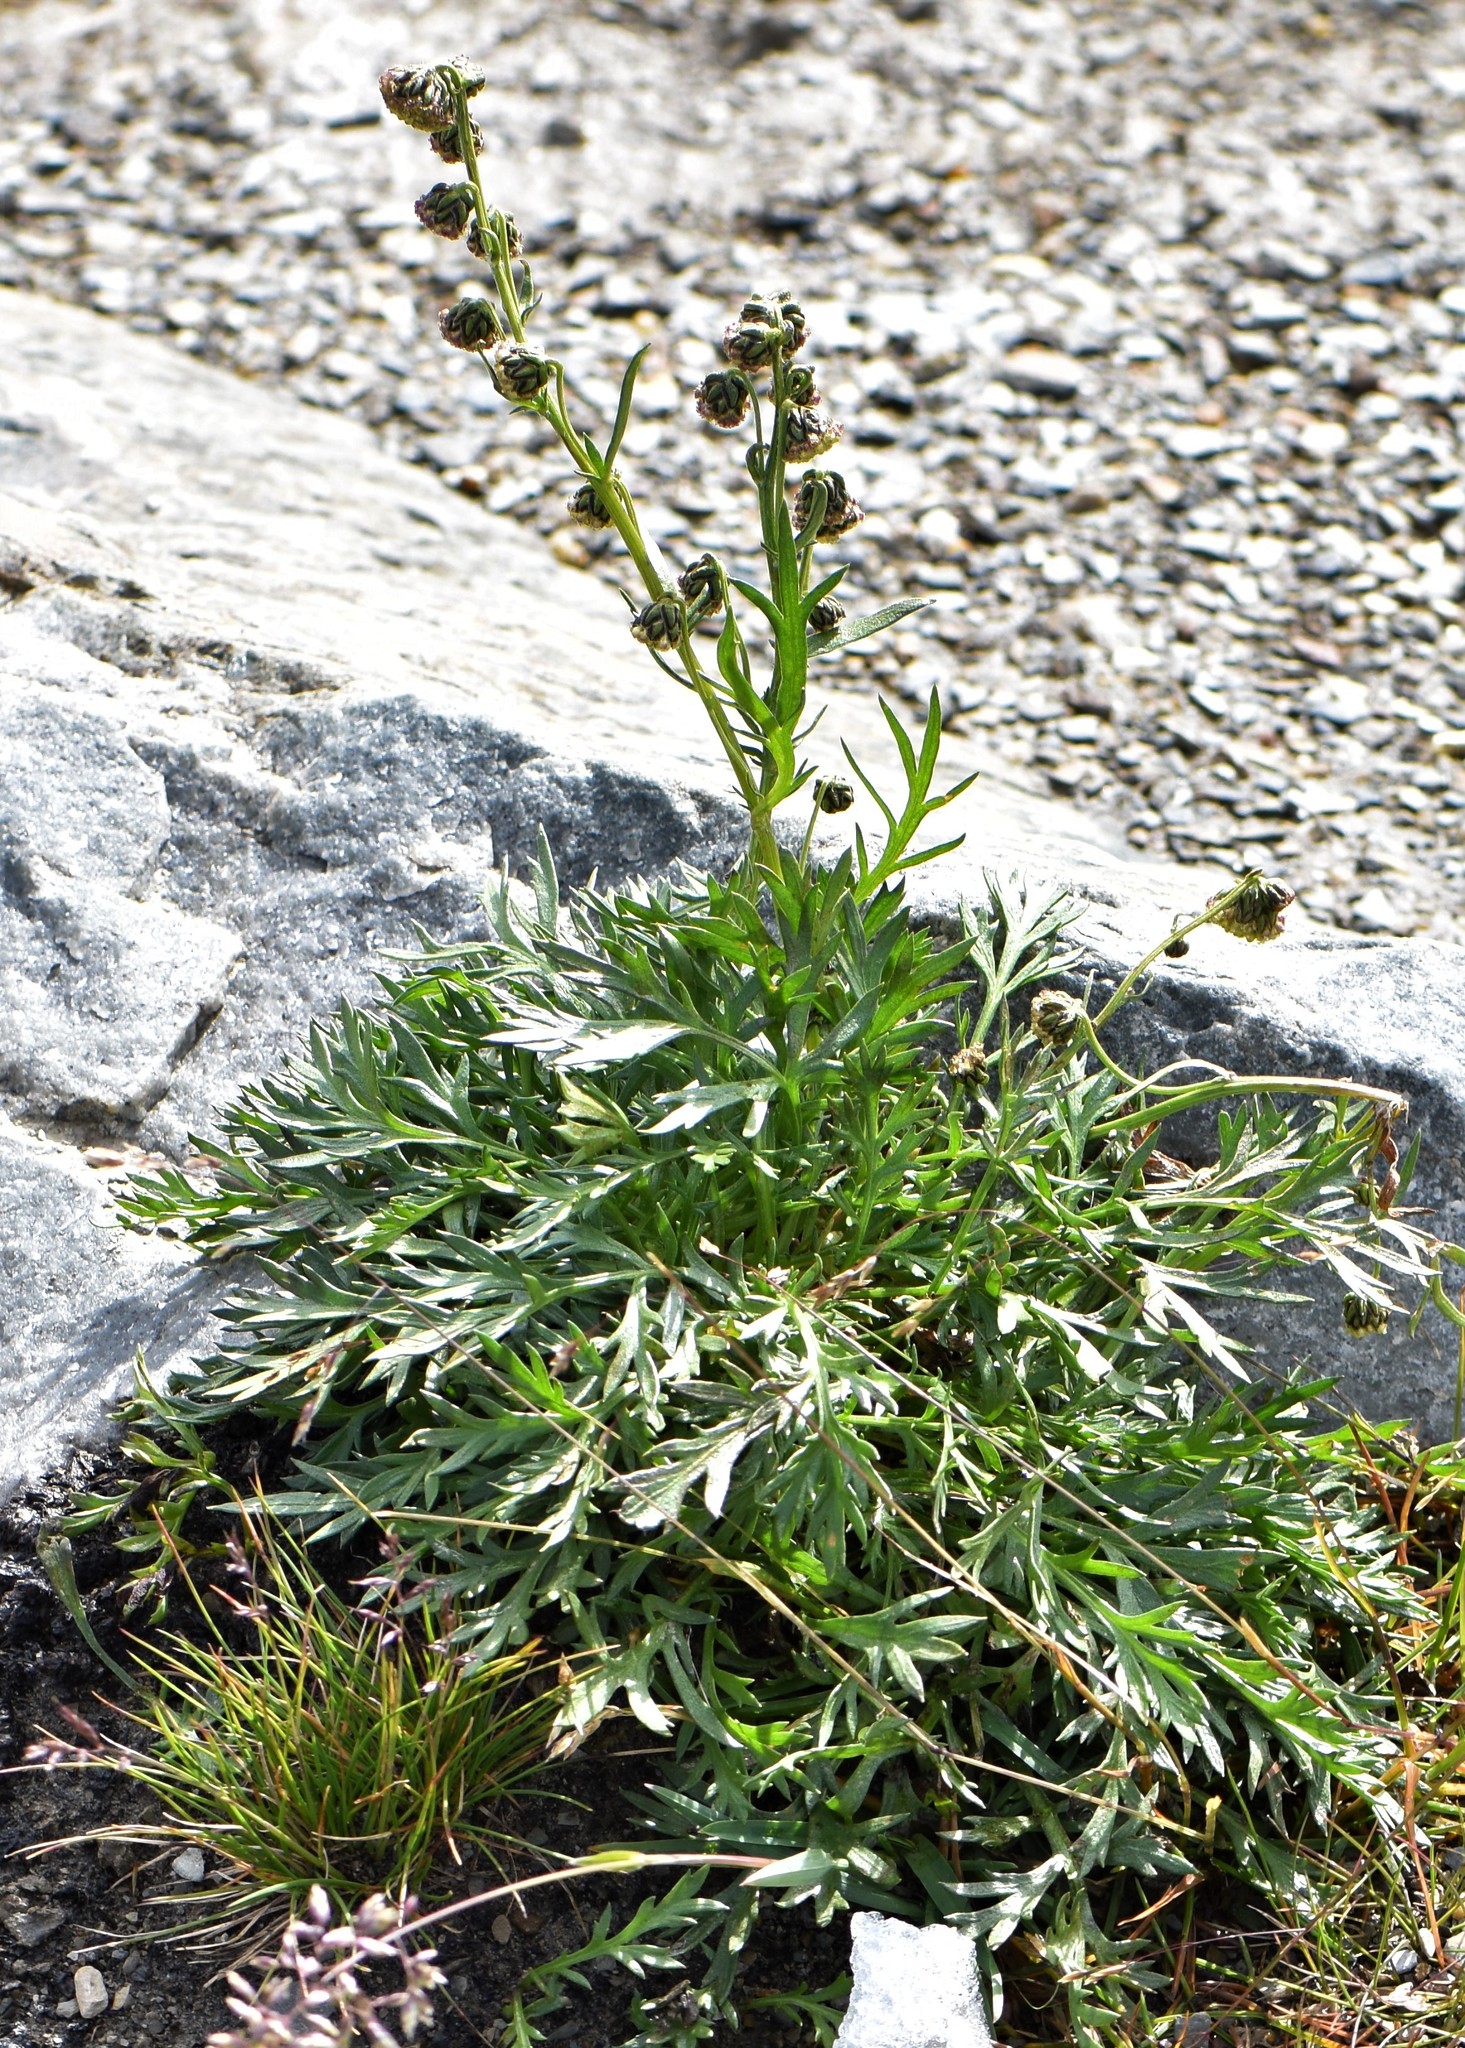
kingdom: Plantae
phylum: Tracheophyta
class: Magnoliopsida
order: Asterales
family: Asteraceae
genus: Artemisia
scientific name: Artemisia norvegica
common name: Norwegian mugwort
